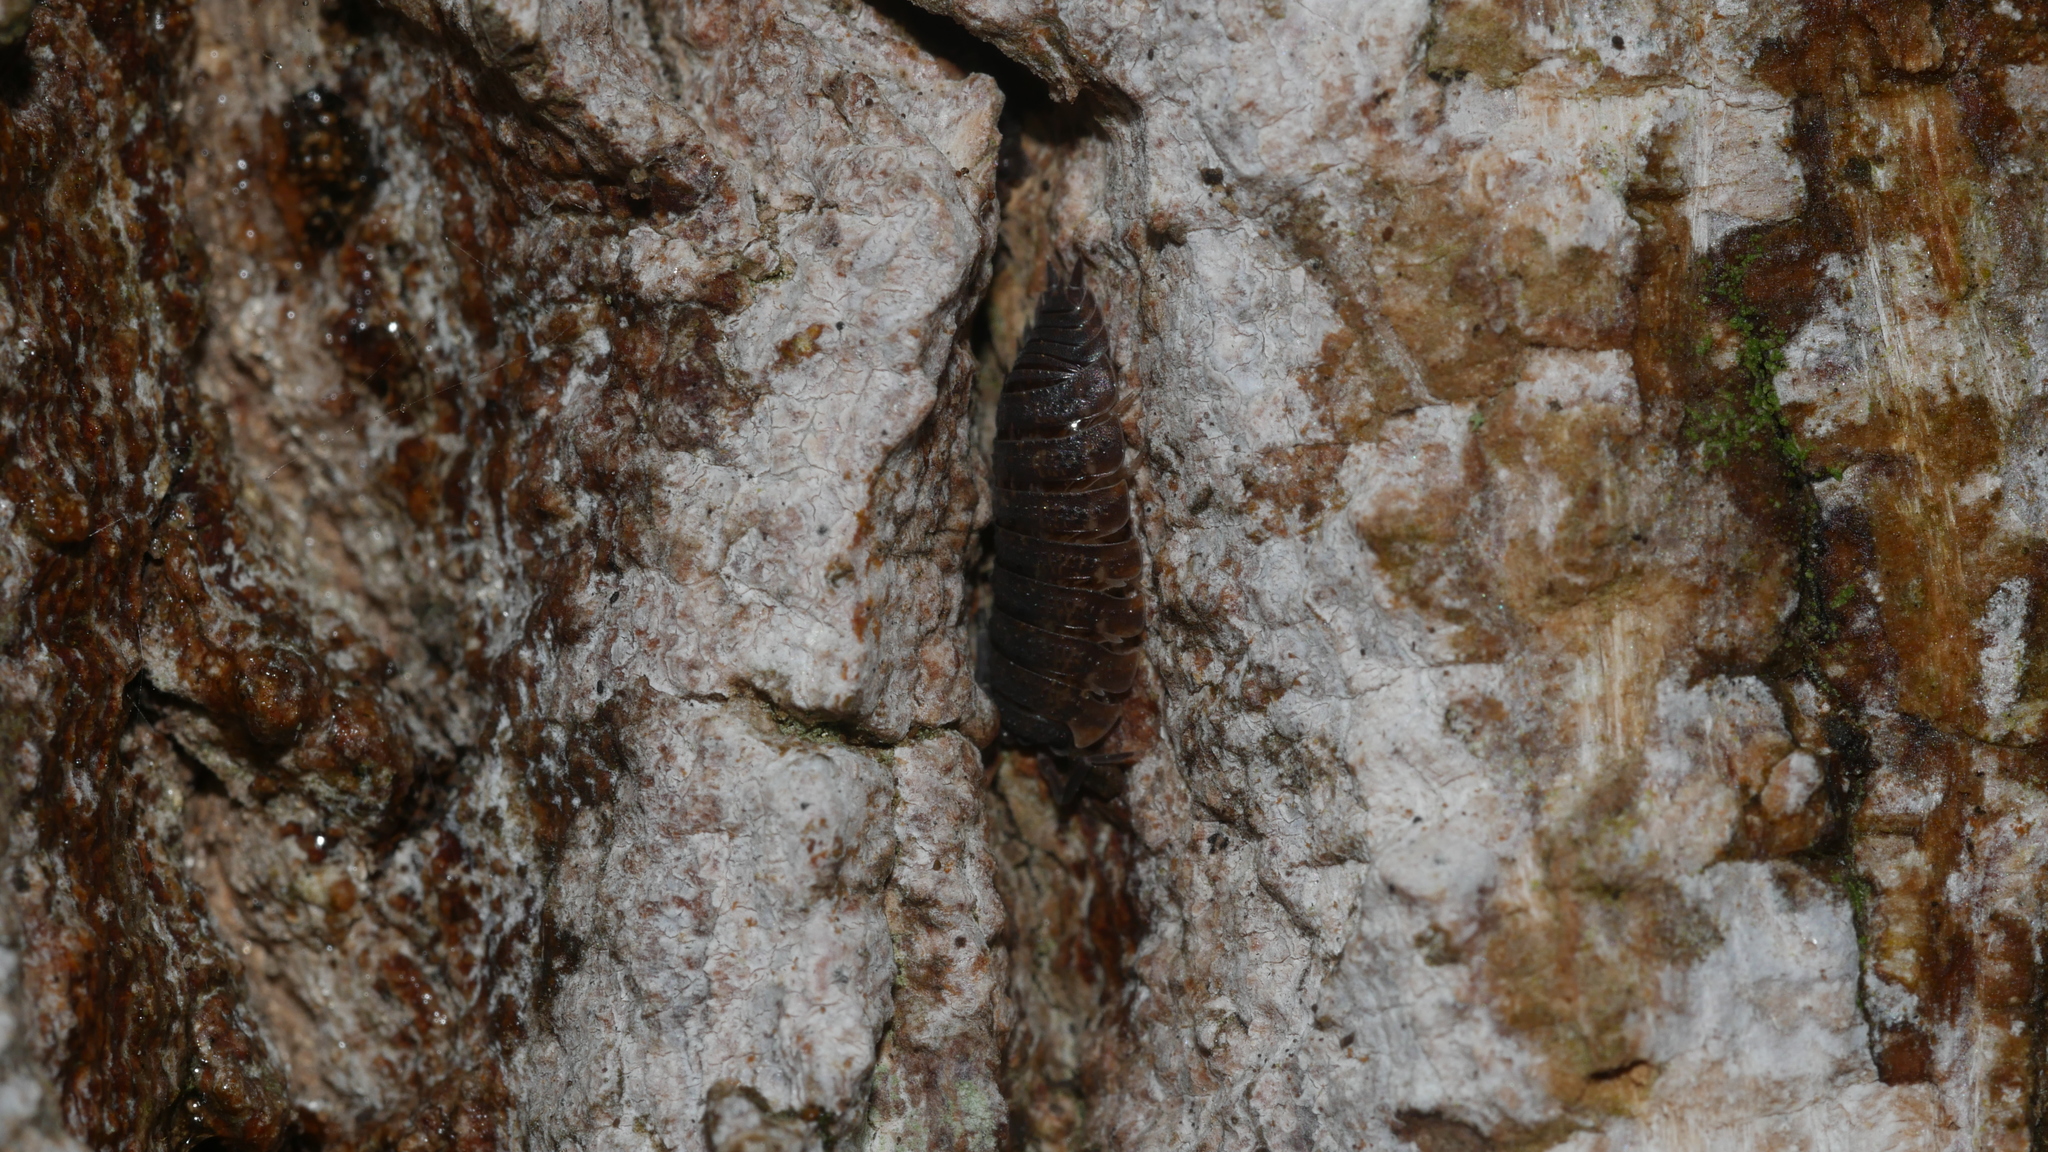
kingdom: Animalia
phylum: Arthropoda
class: Malacostraca
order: Isopoda
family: Porcellionidae
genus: Porcellio
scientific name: Porcellio scaber
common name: Common rough woodlouse
